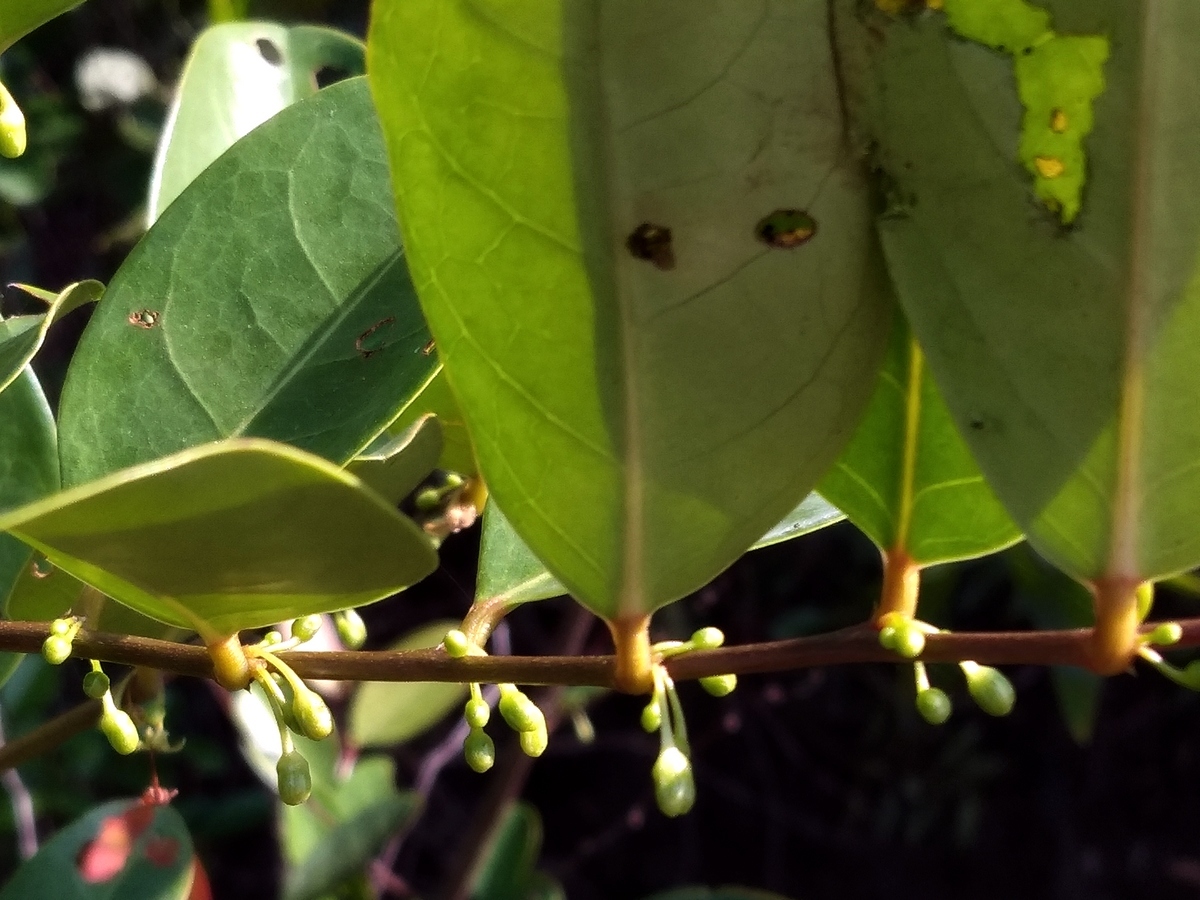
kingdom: Plantae
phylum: Tracheophyta
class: Magnoliopsida
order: Malpighiales
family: Phyllanthaceae
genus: Glochidion
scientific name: Glochidion littorale
